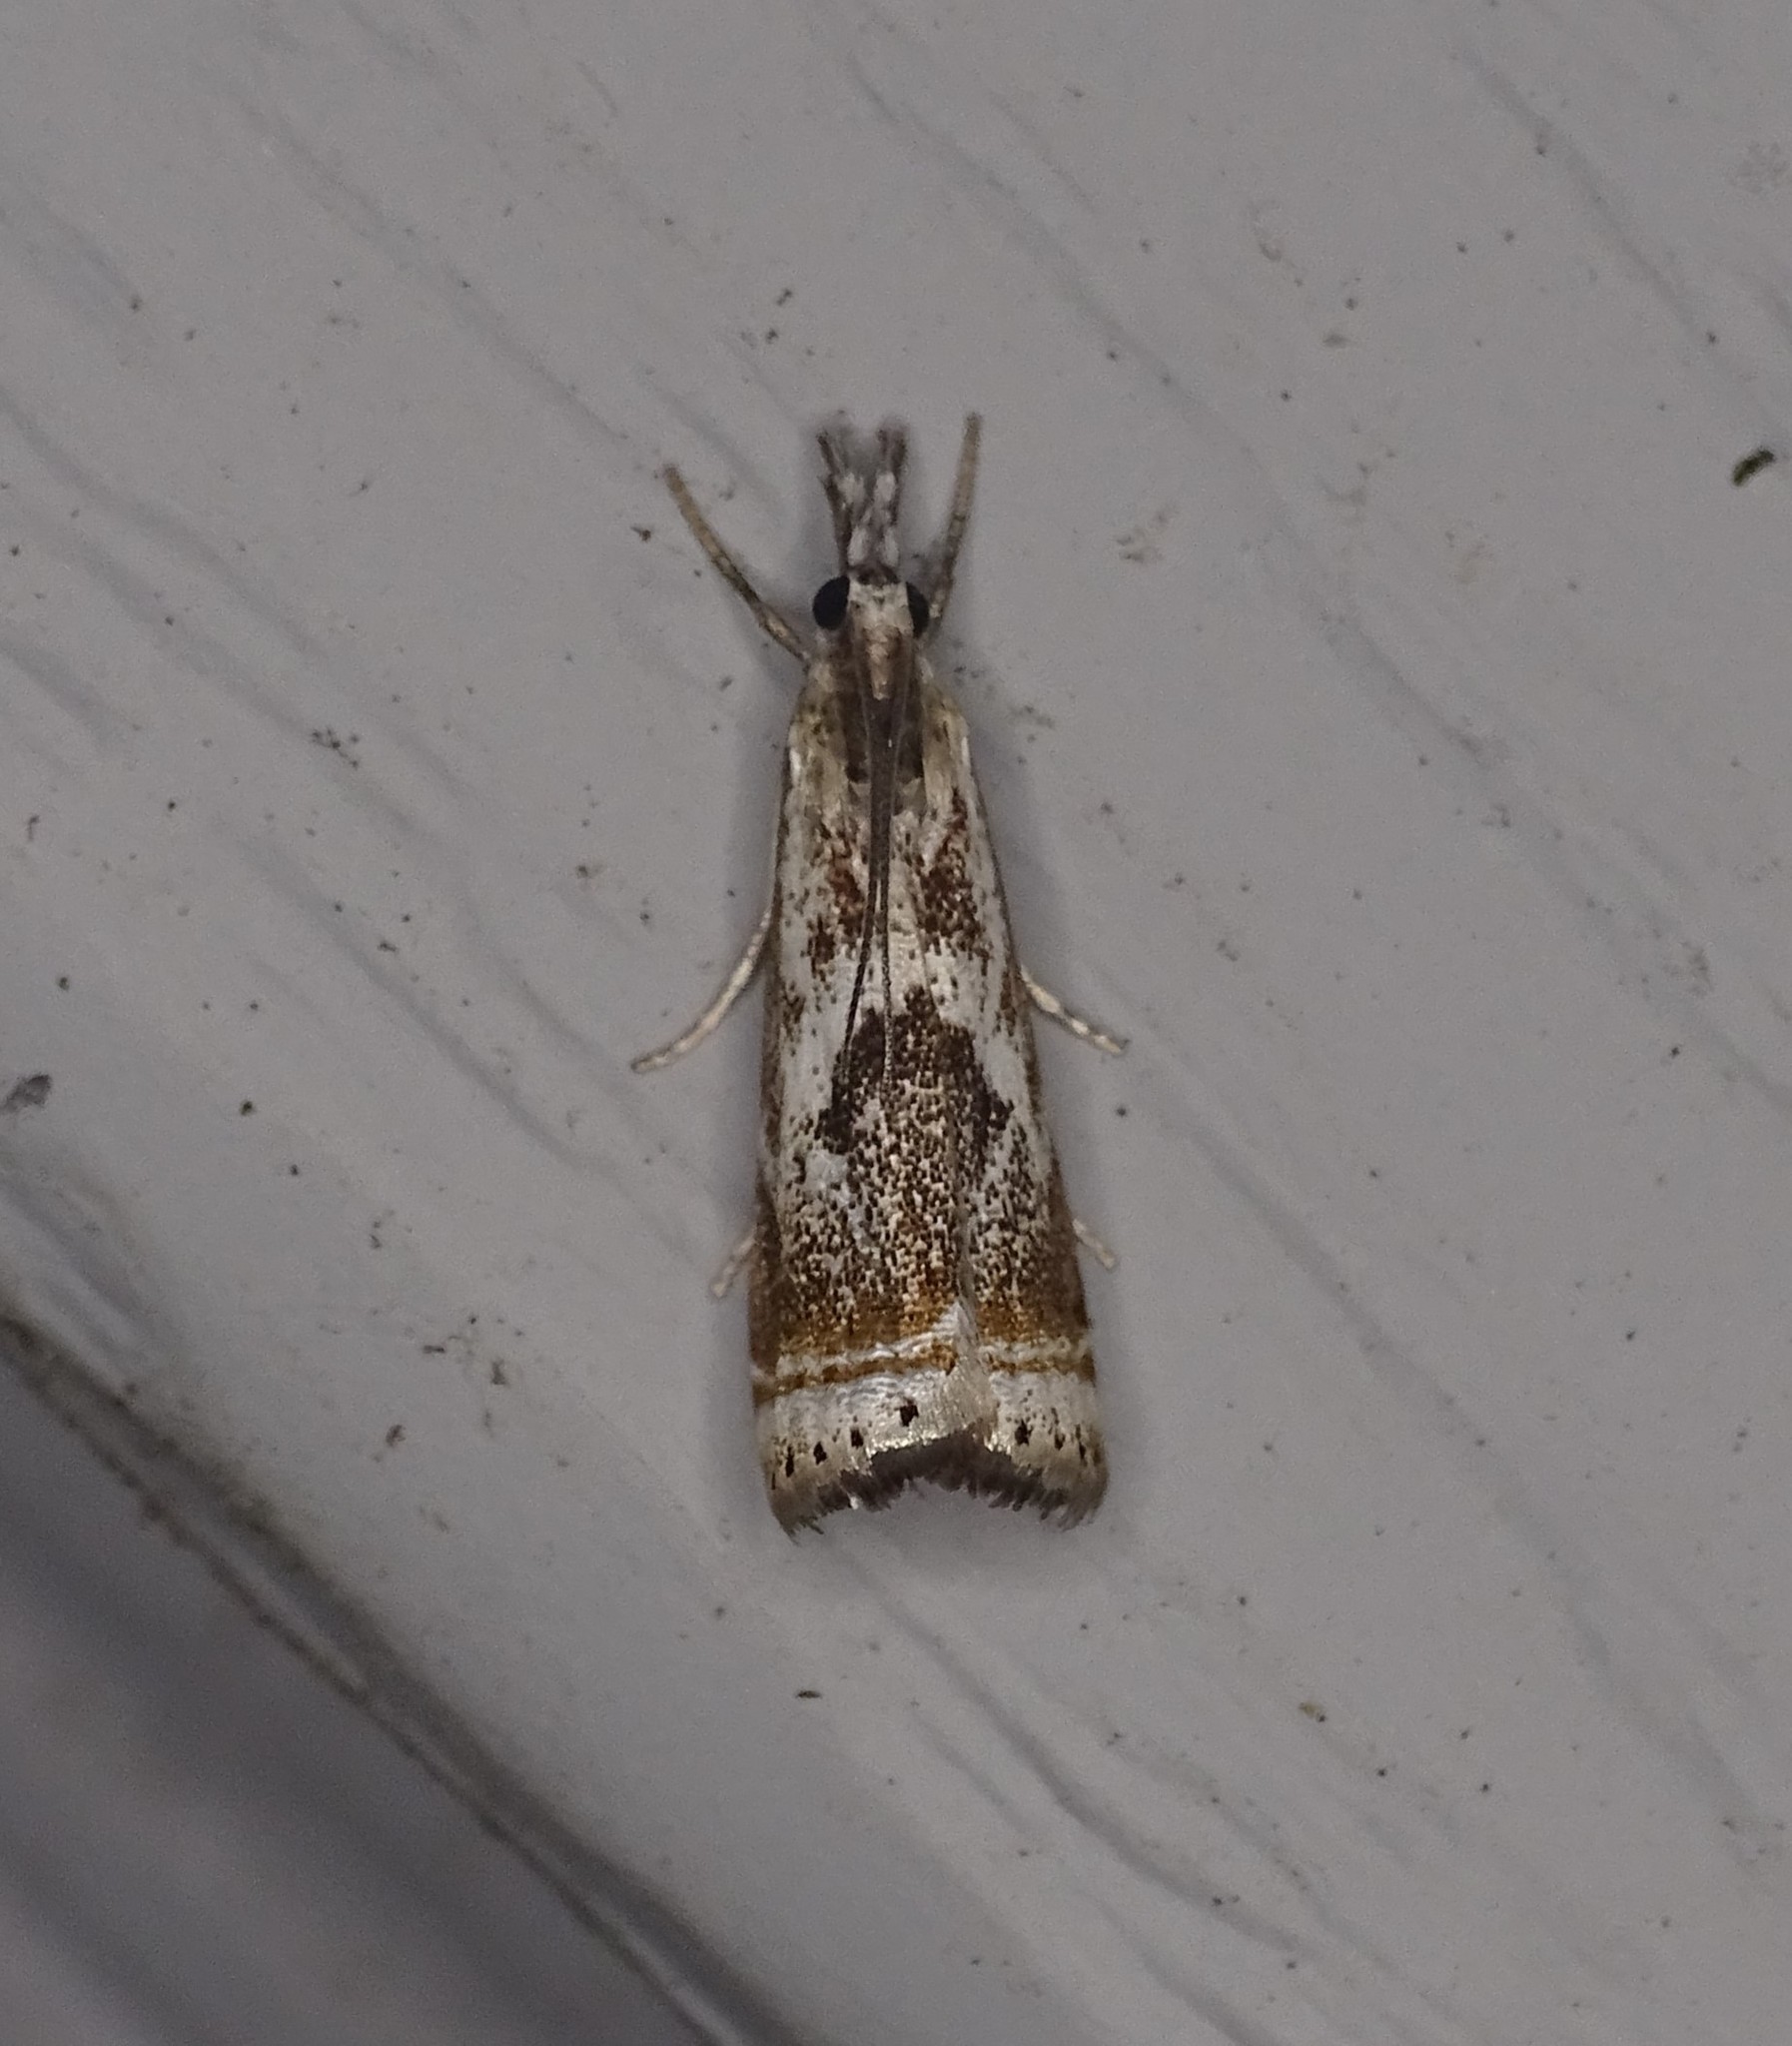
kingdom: Animalia
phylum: Arthropoda
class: Insecta
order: Lepidoptera
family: Crambidae
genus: Microcrambus
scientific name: Microcrambus elegans
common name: Elegant grass-veneer
